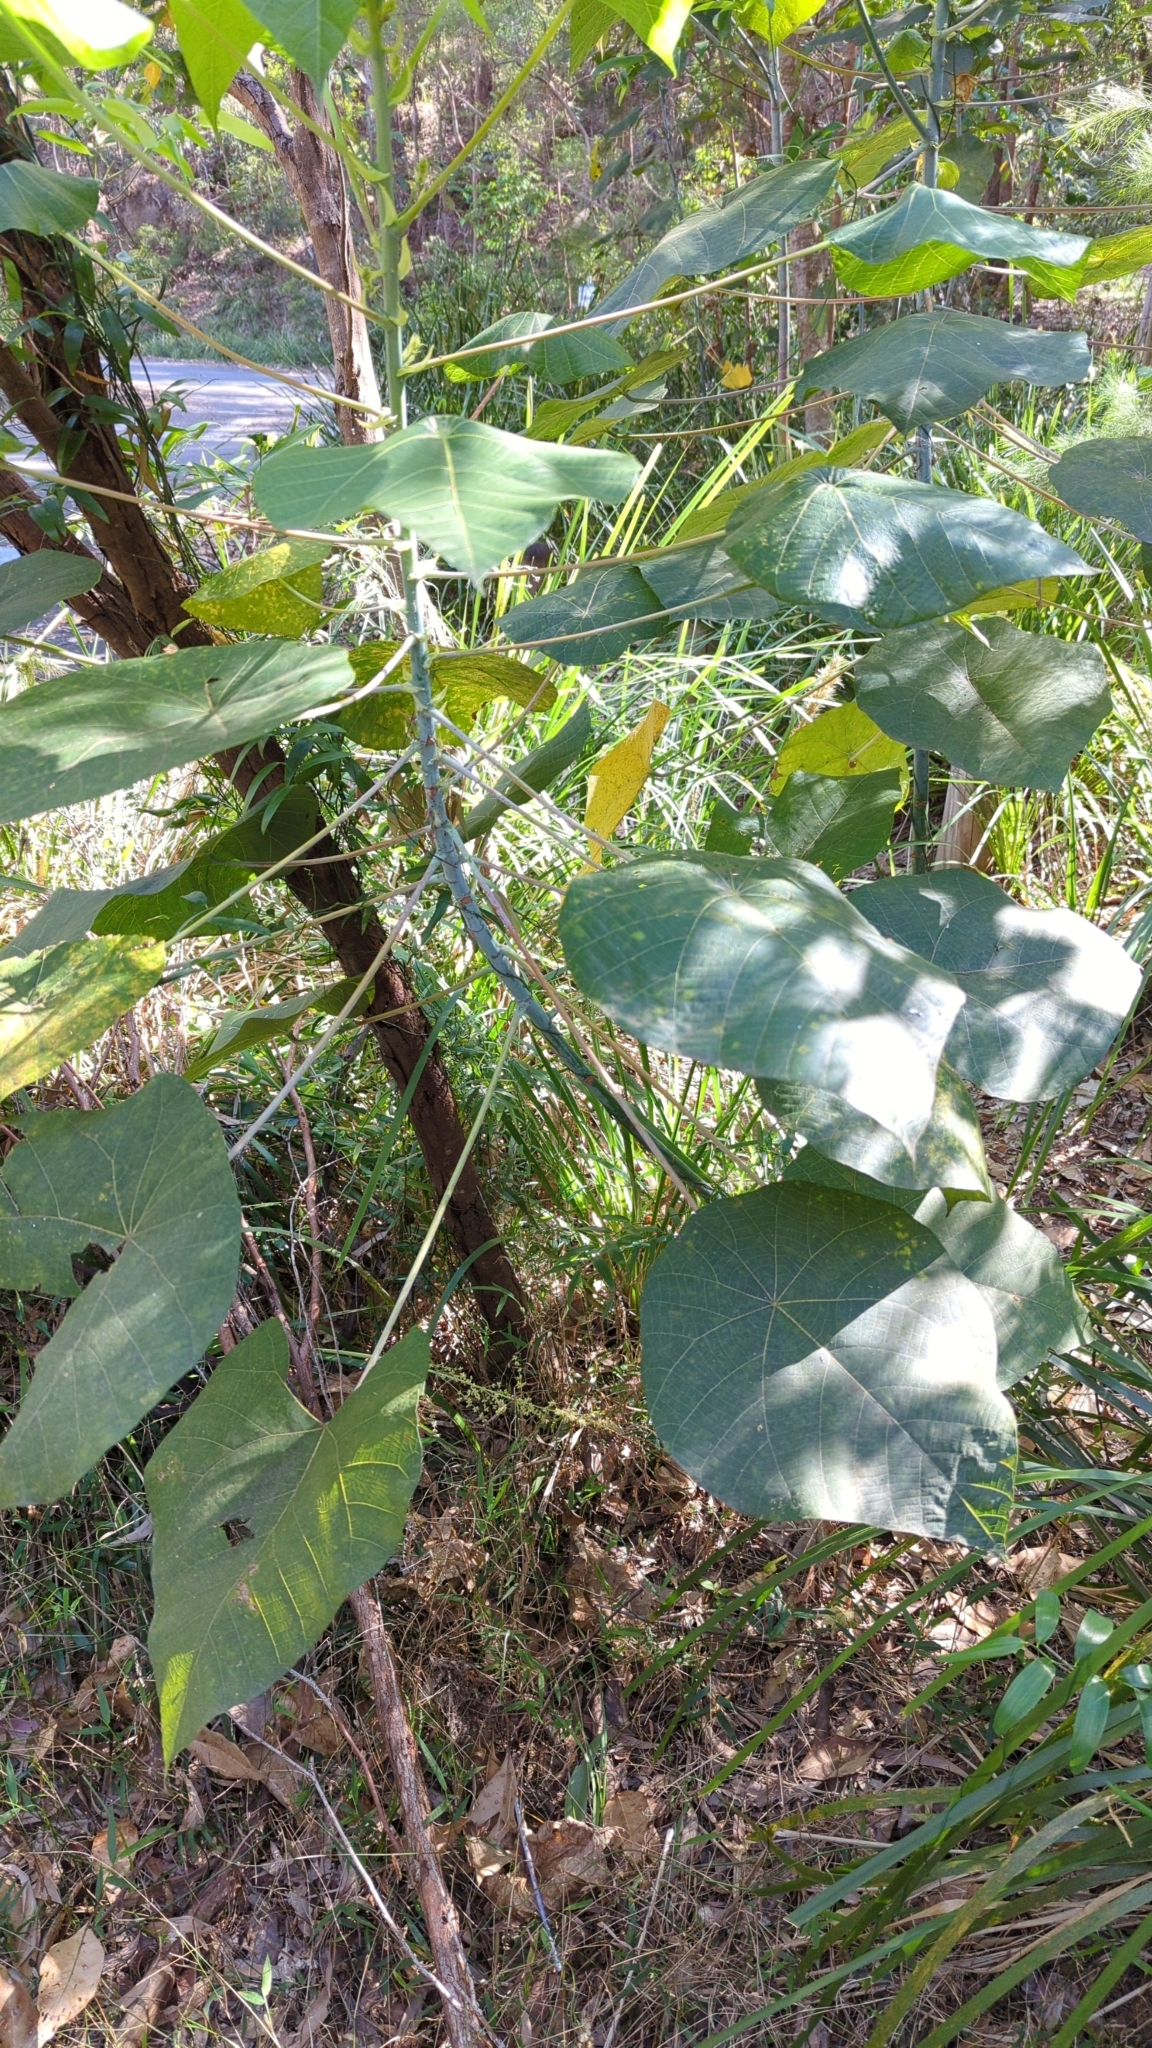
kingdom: Plantae
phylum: Tracheophyta
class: Magnoliopsida
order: Malpighiales
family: Euphorbiaceae
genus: Macaranga
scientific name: Macaranga tanarius
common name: Parasol leaf tree
